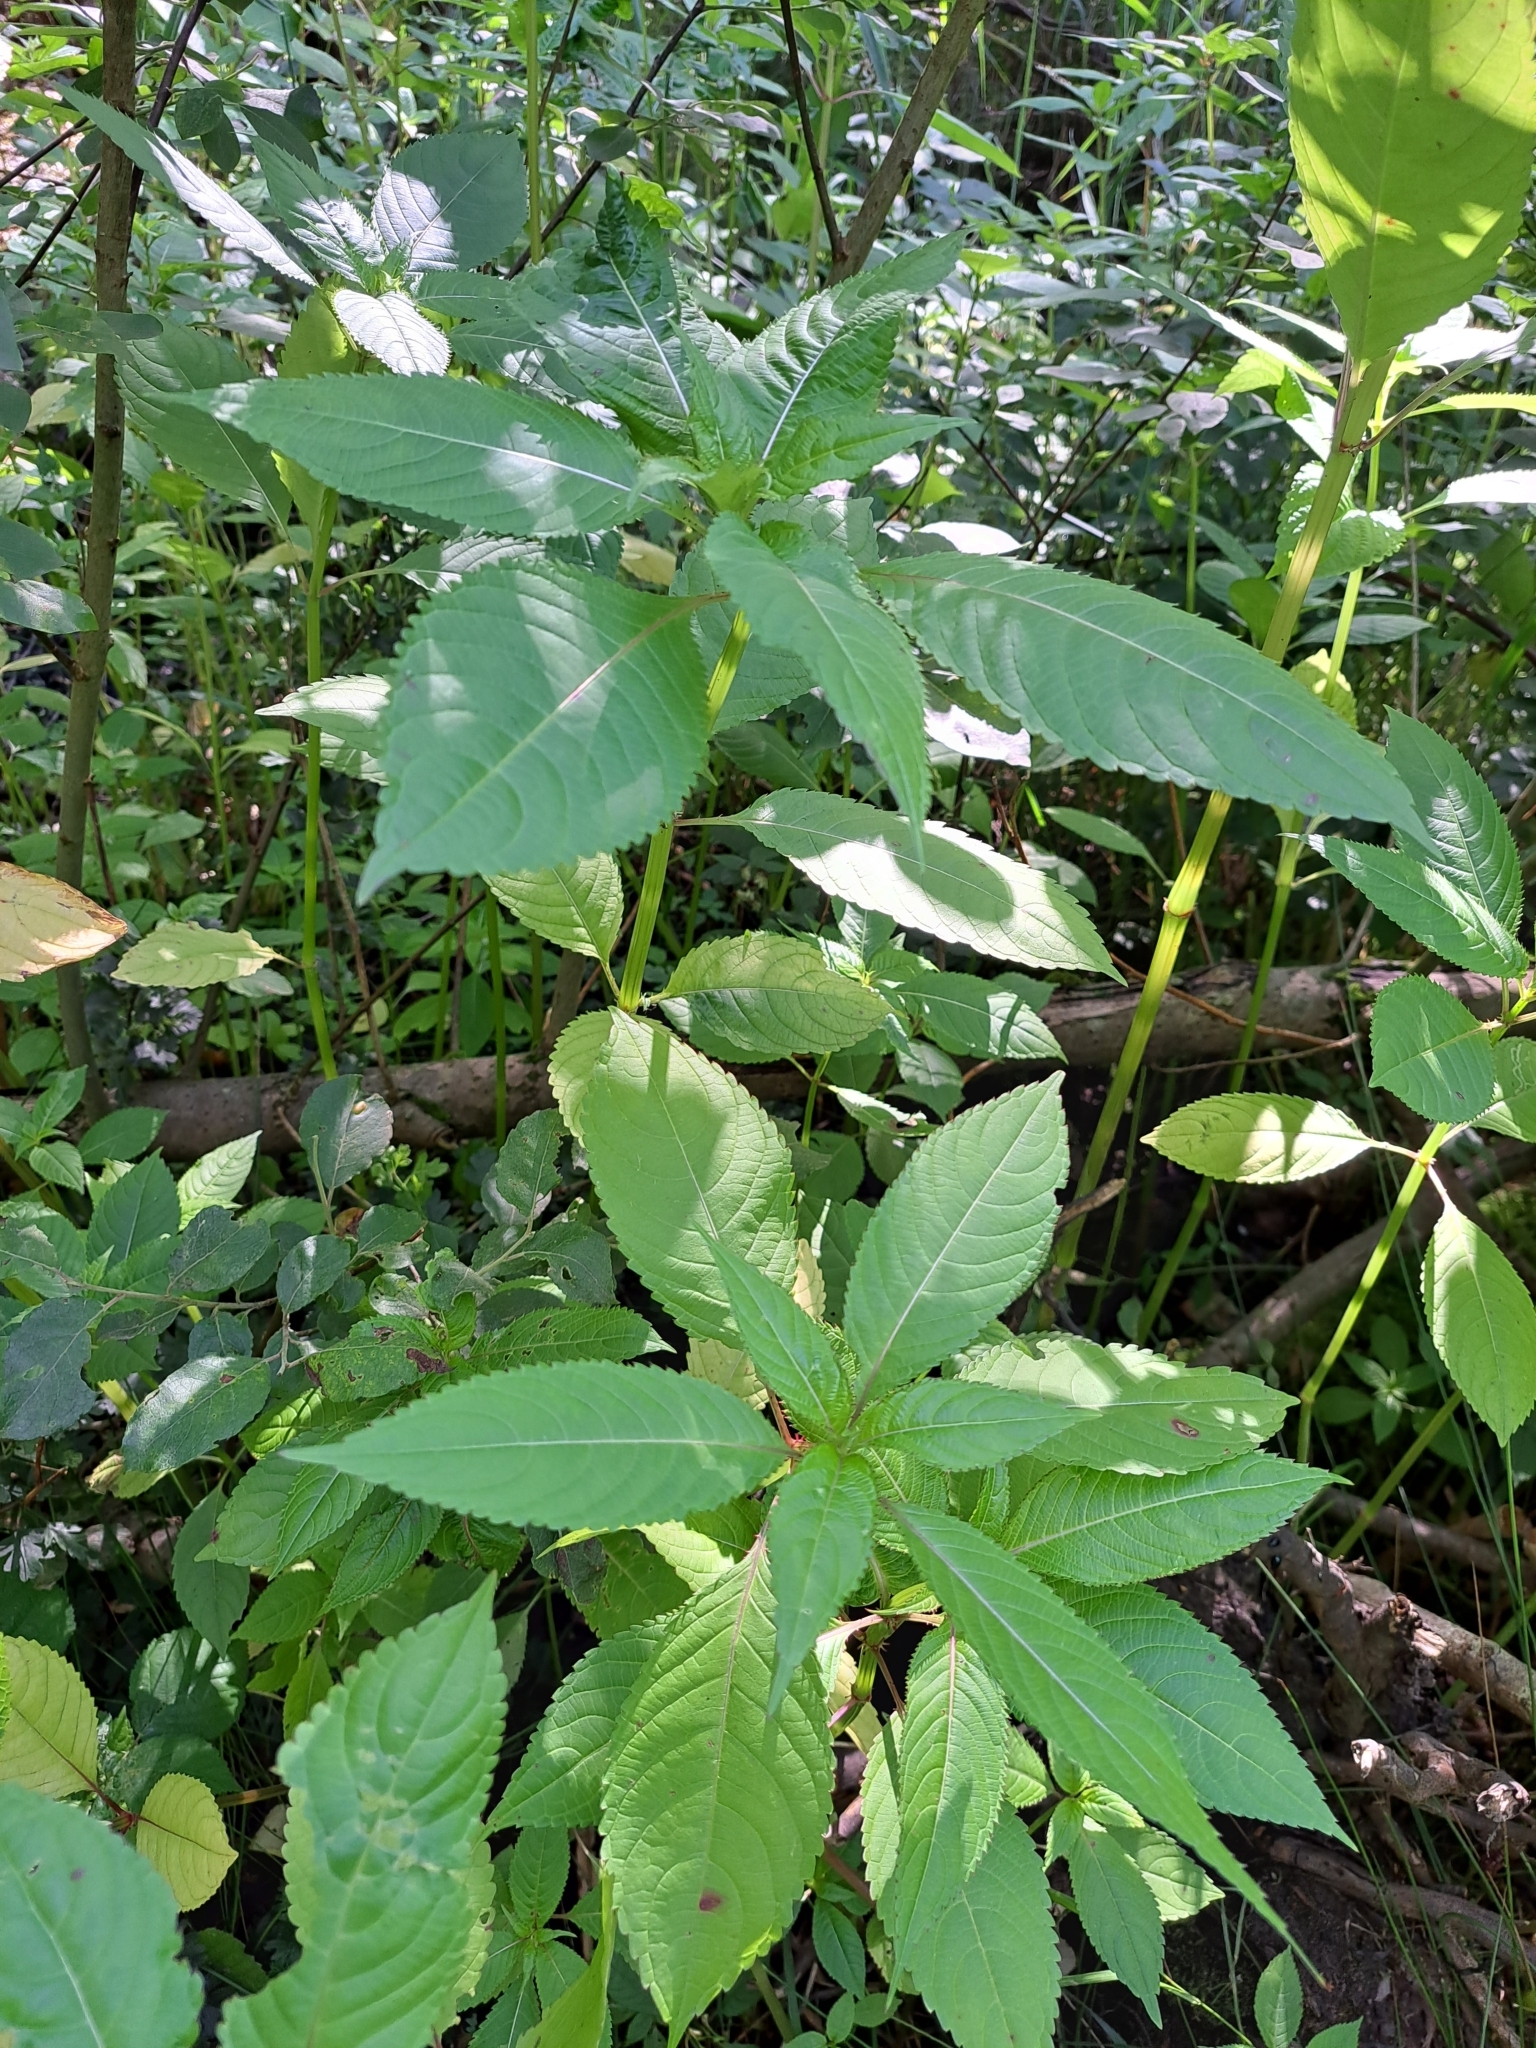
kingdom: Plantae
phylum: Tracheophyta
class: Magnoliopsida
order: Ericales
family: Balsaminaceae
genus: Impatiens
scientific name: Impatiens glandulifera
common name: Himalayan balsam
